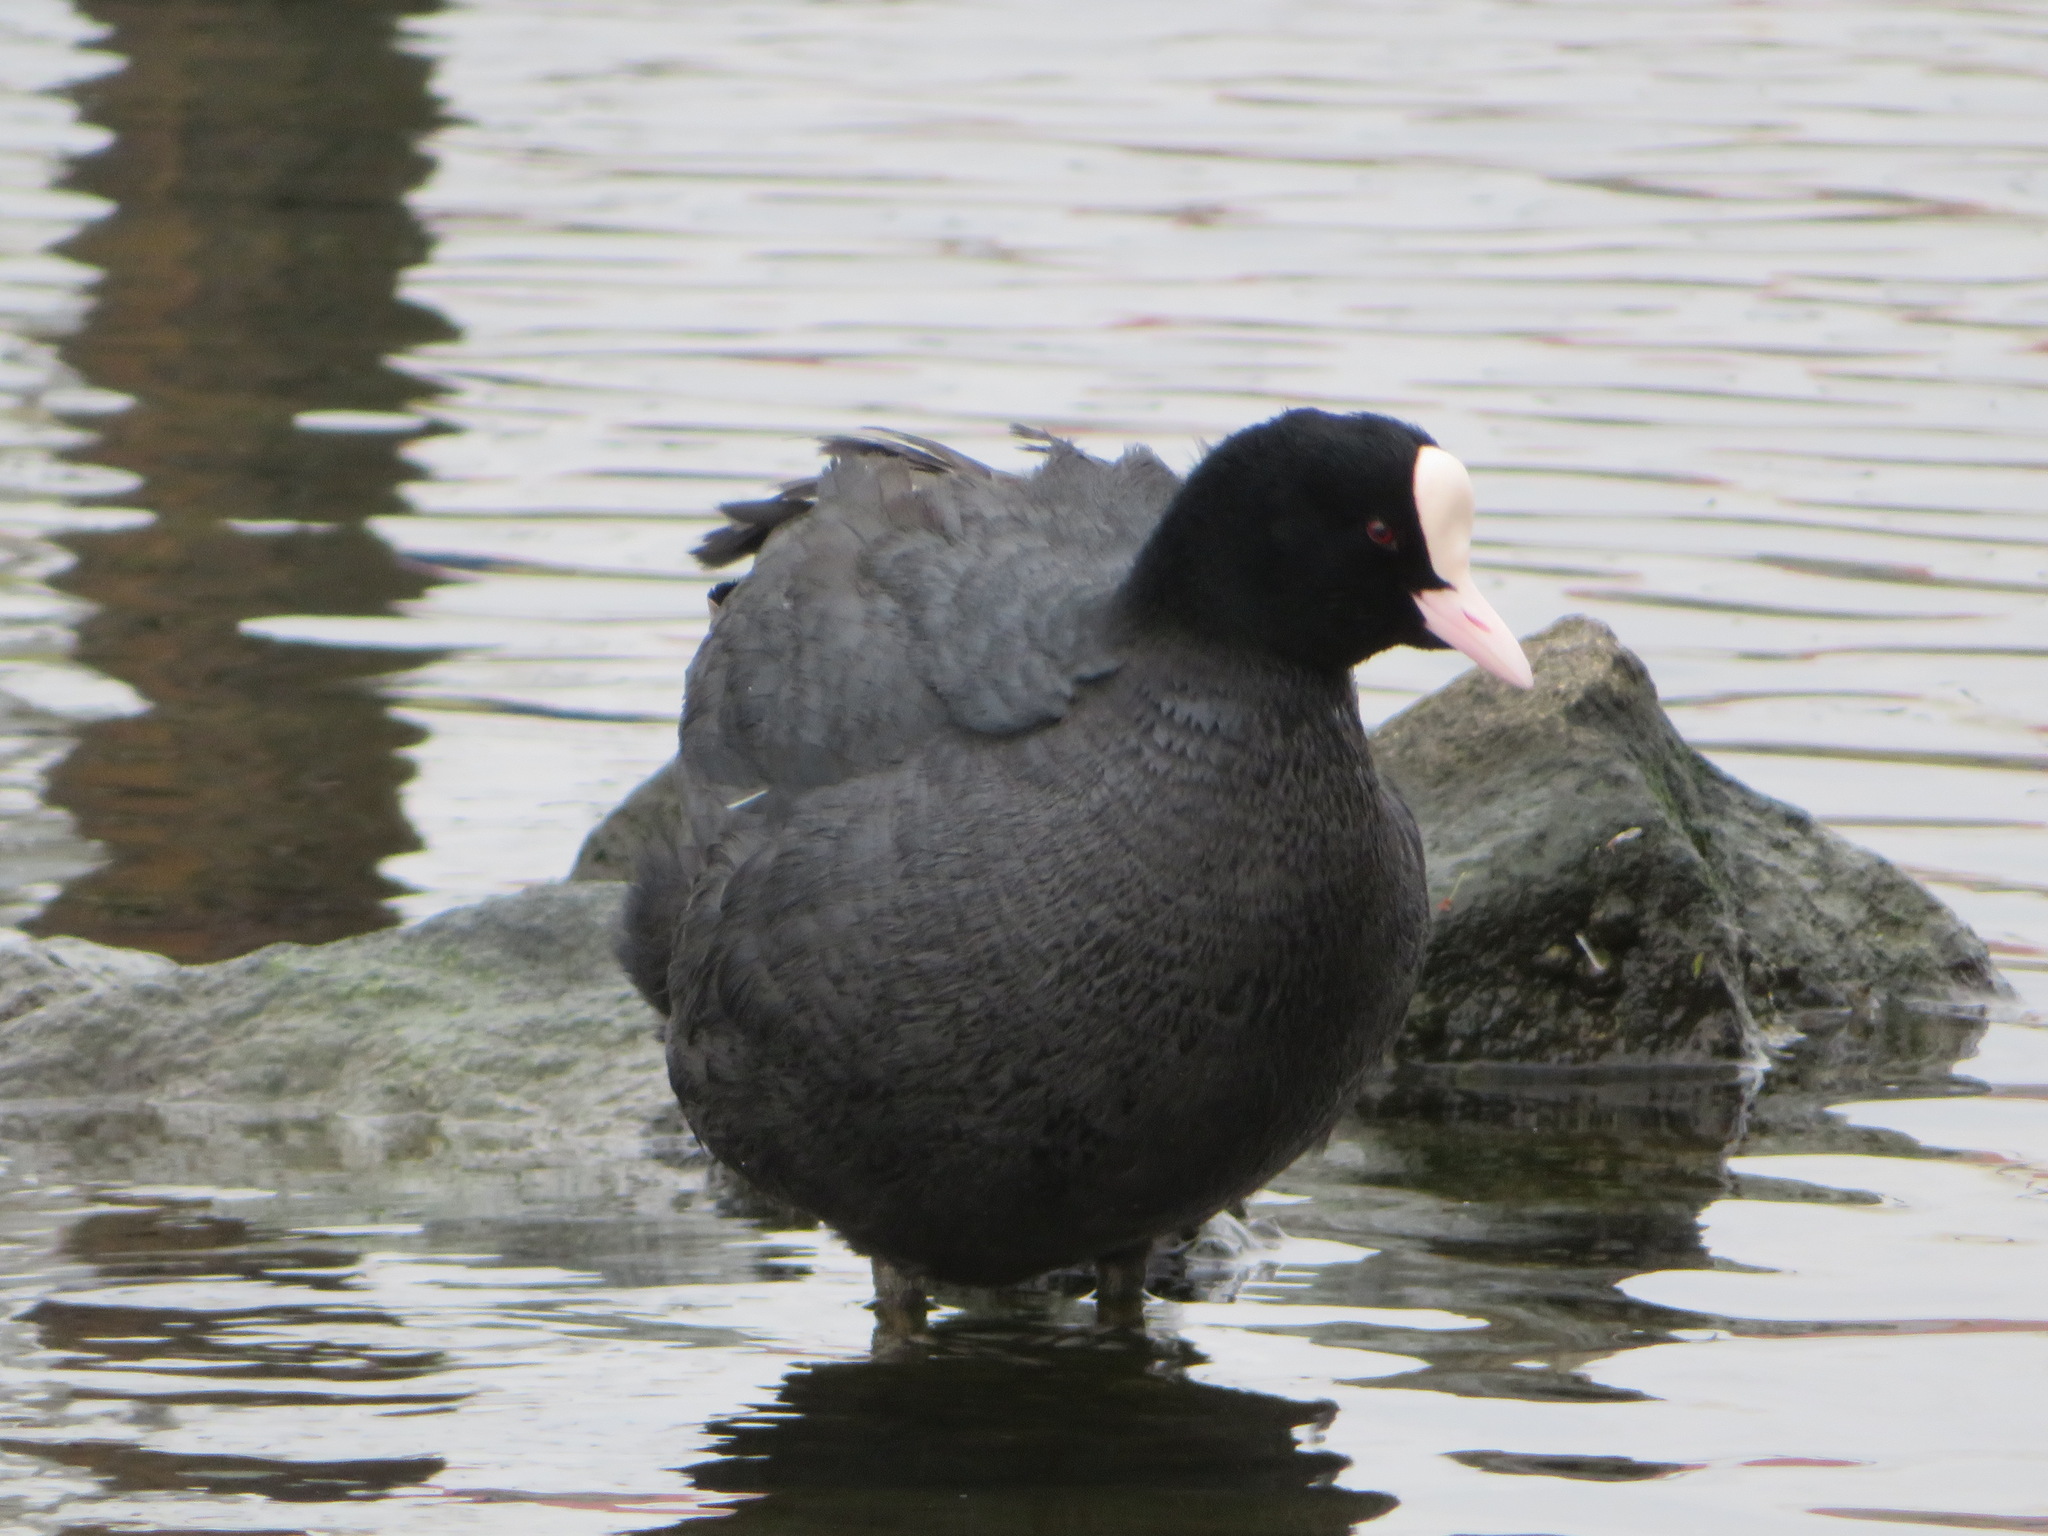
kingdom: Animalia
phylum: Chordata
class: Aves
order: Gruiformes
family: Rallidae
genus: Fulica
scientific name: Fulica atra
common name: Eurasian coot
